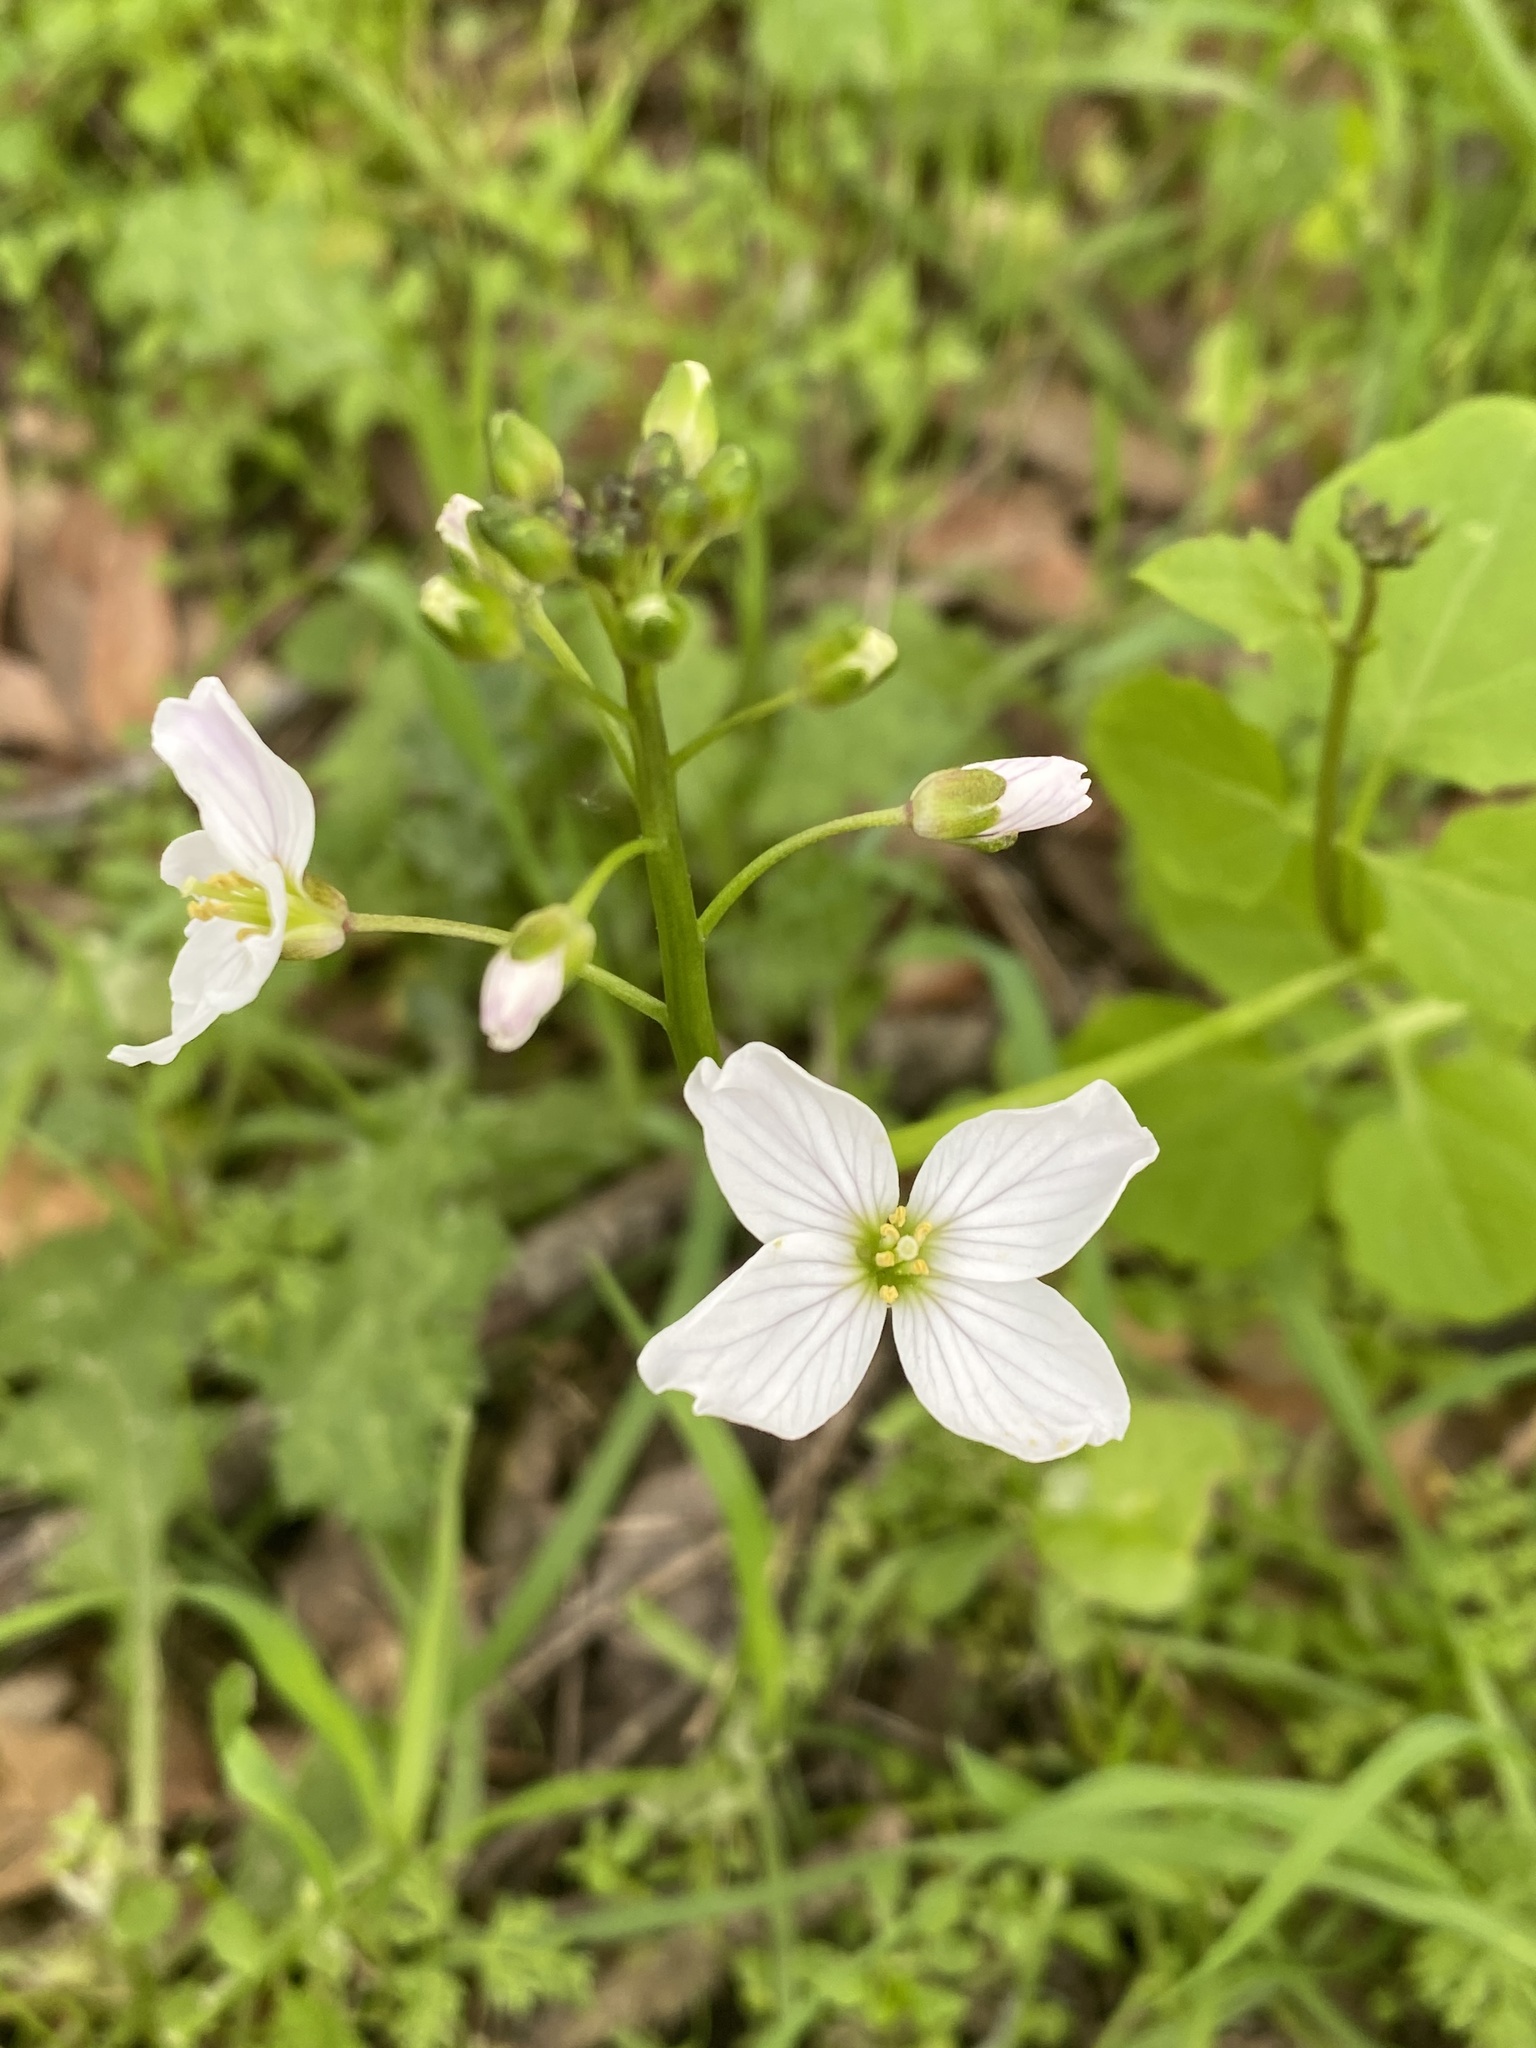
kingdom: Plantae
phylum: Tracheophyta
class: Magnoliopsida
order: Brassicales
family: Brassicaceae
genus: Cardamine
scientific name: Cardamine californica
